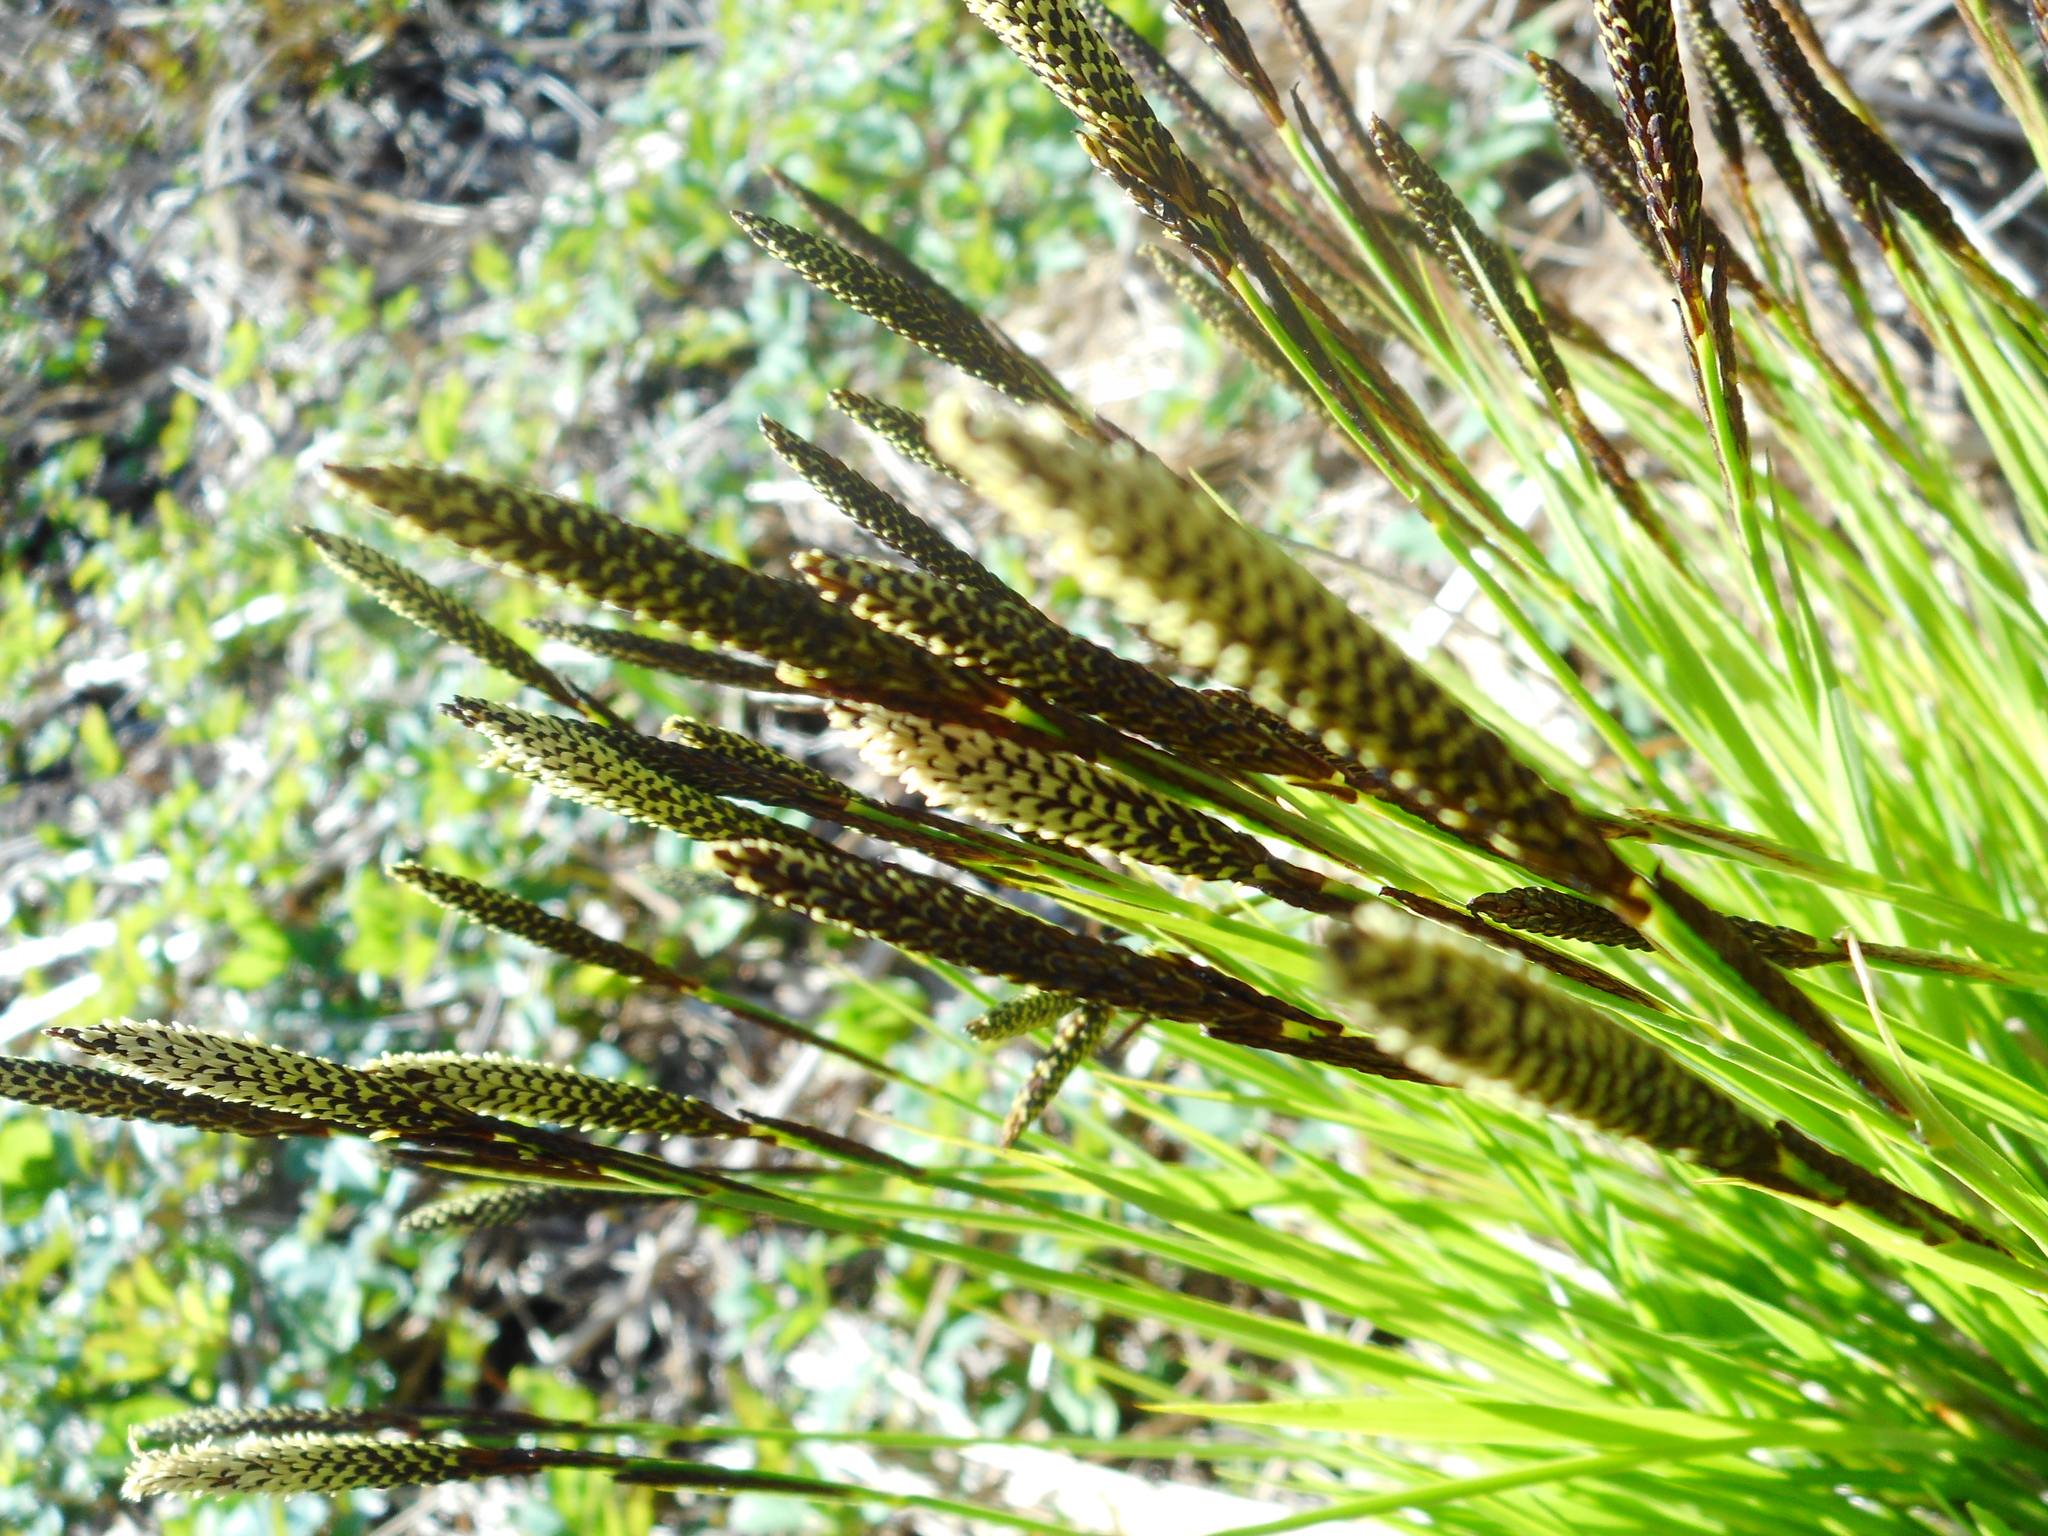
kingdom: Plantae
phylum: Tracheophyta
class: Liliopsida
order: Poales
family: Cyperaceae
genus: Carex
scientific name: Carex cespitosa
